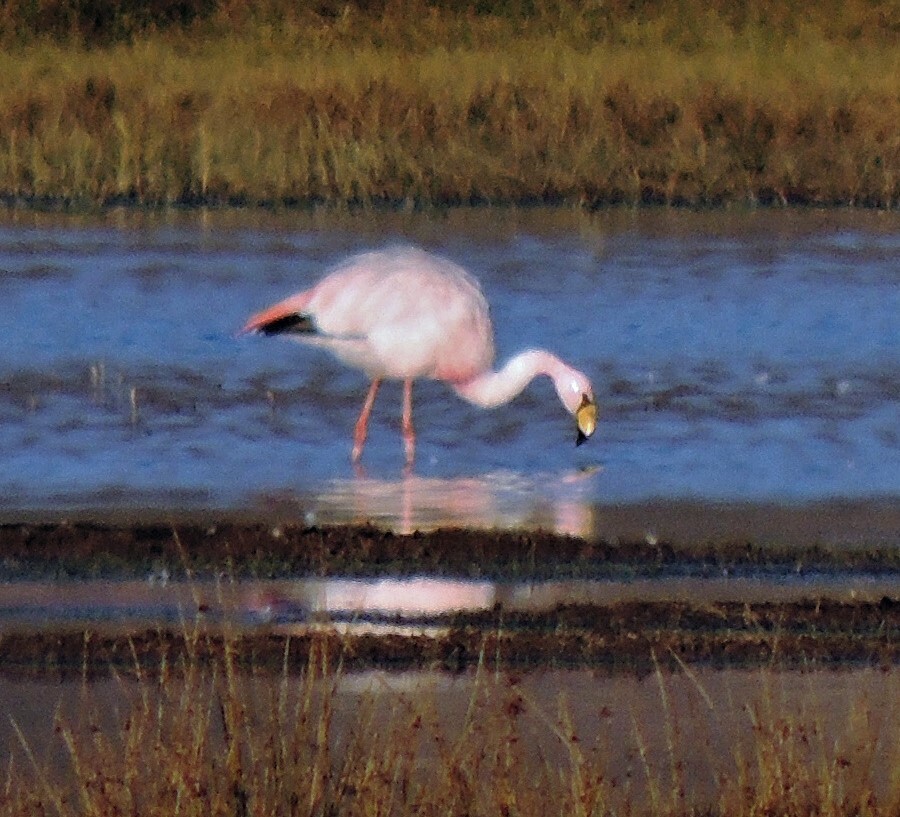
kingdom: Animalia
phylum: Chordata
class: Aves
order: Phoenicopteriformes
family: Phoenicopteridae
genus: Phoenicoparrus
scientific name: Phoenicoparrus jamesi
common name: James's flamingo
